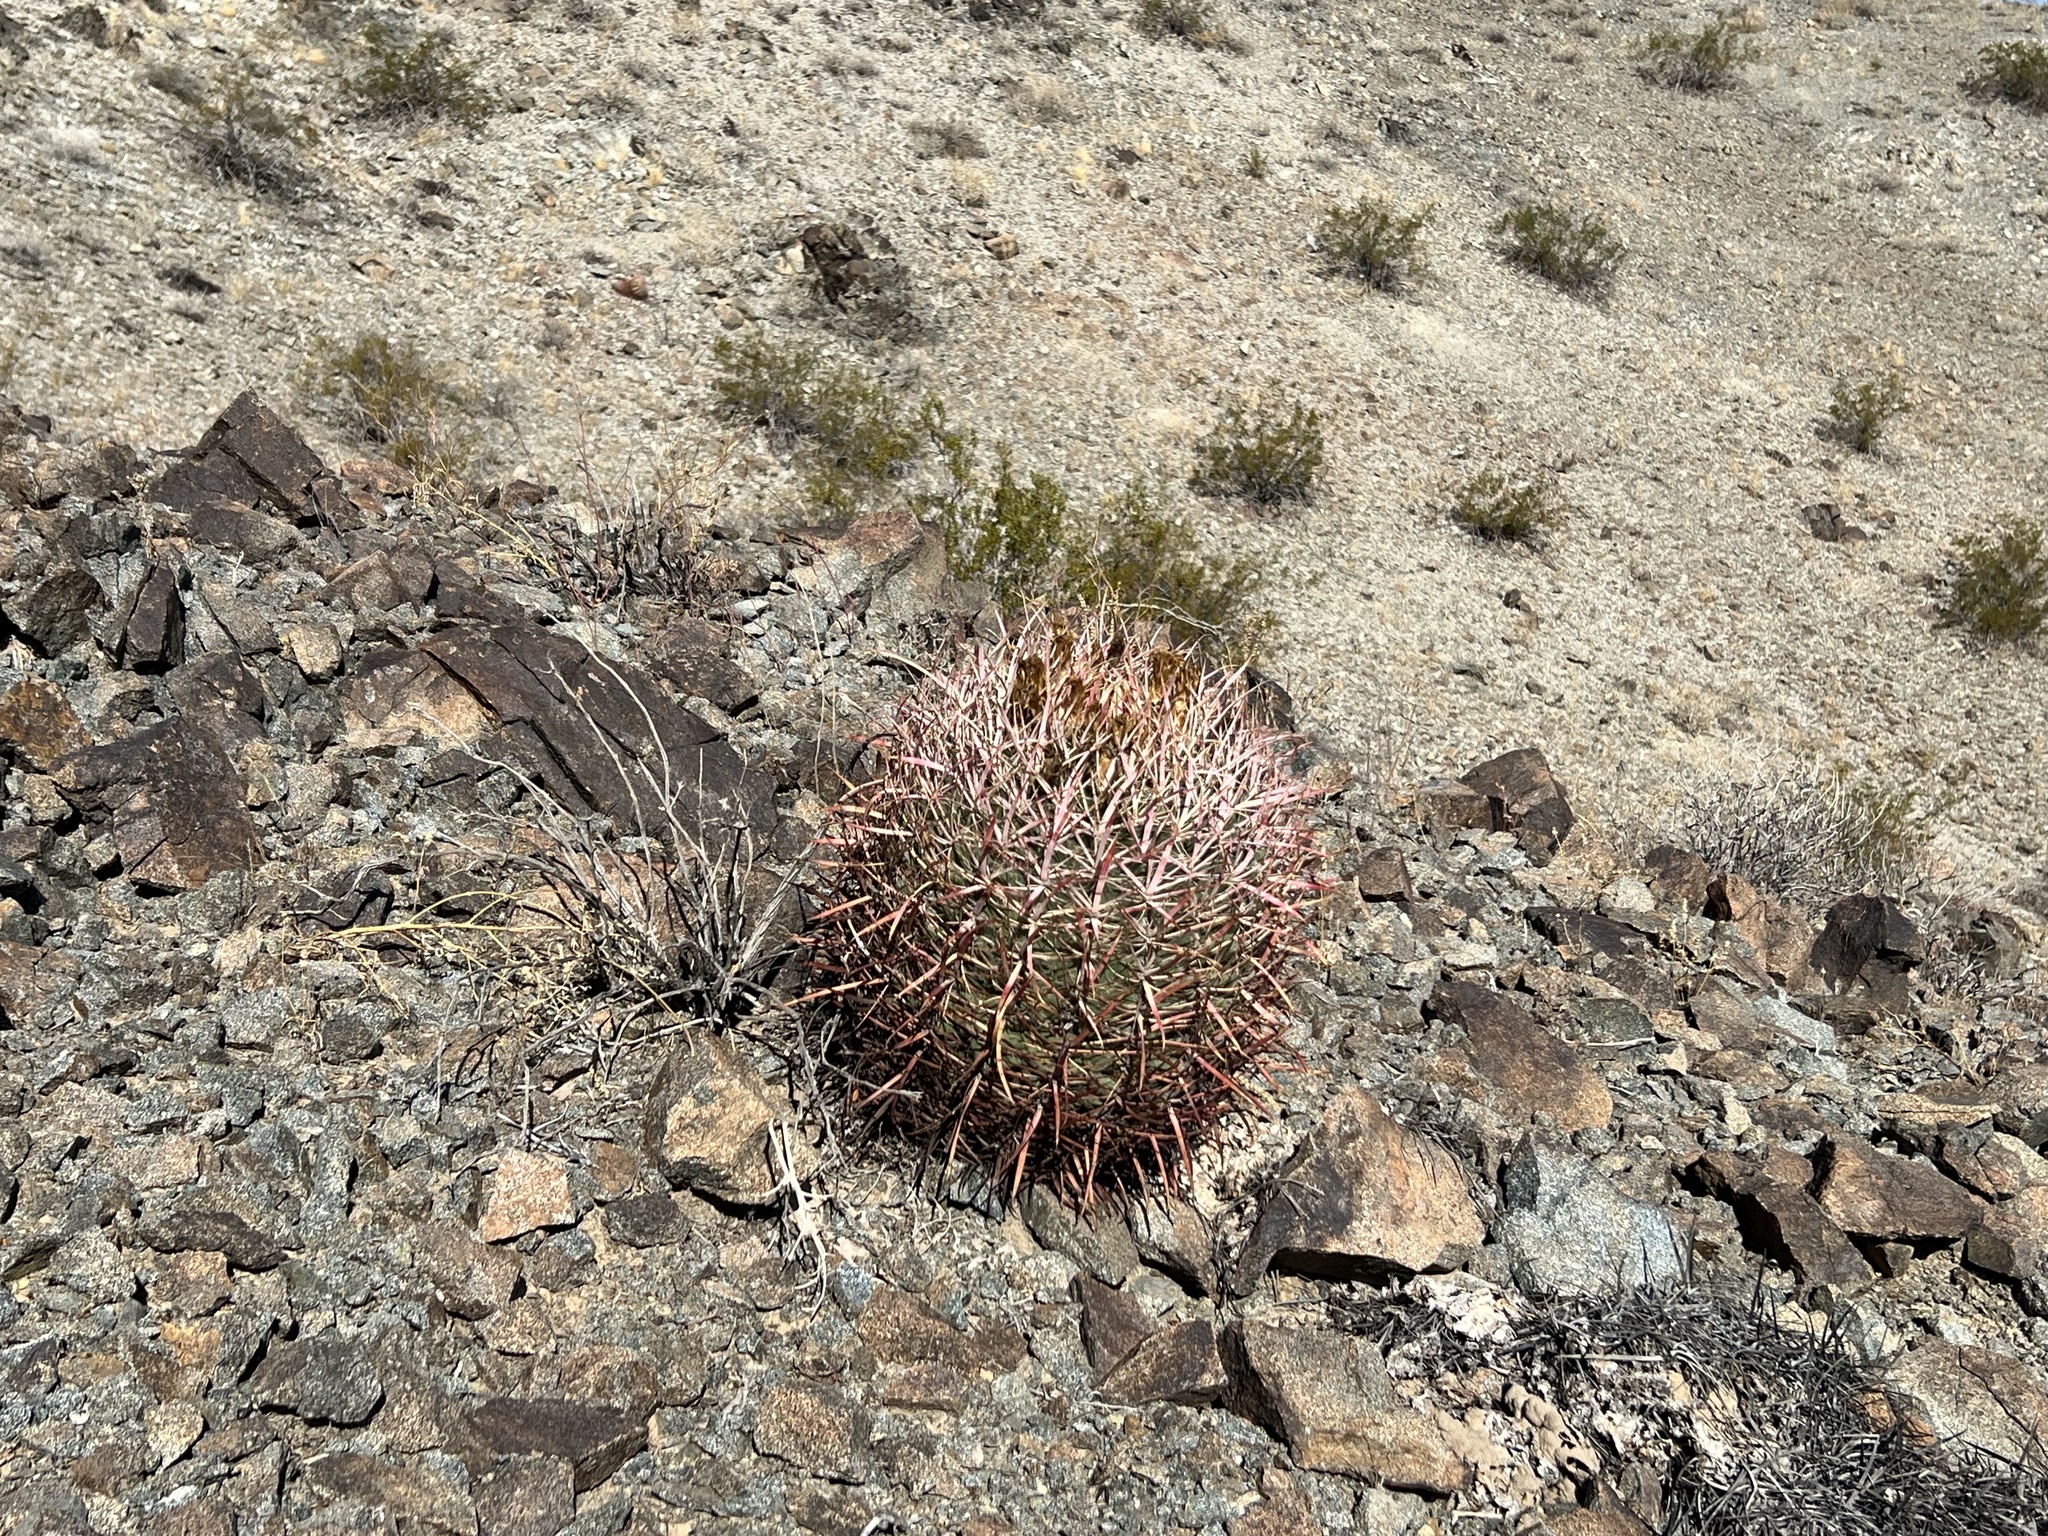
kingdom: Plantae
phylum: Tracheophyta
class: Magnoliopsida
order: Caryophyllales
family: Cactaceae
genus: Ferocactus
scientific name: Ferocactus cylindraceus
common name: California barrel cactus
